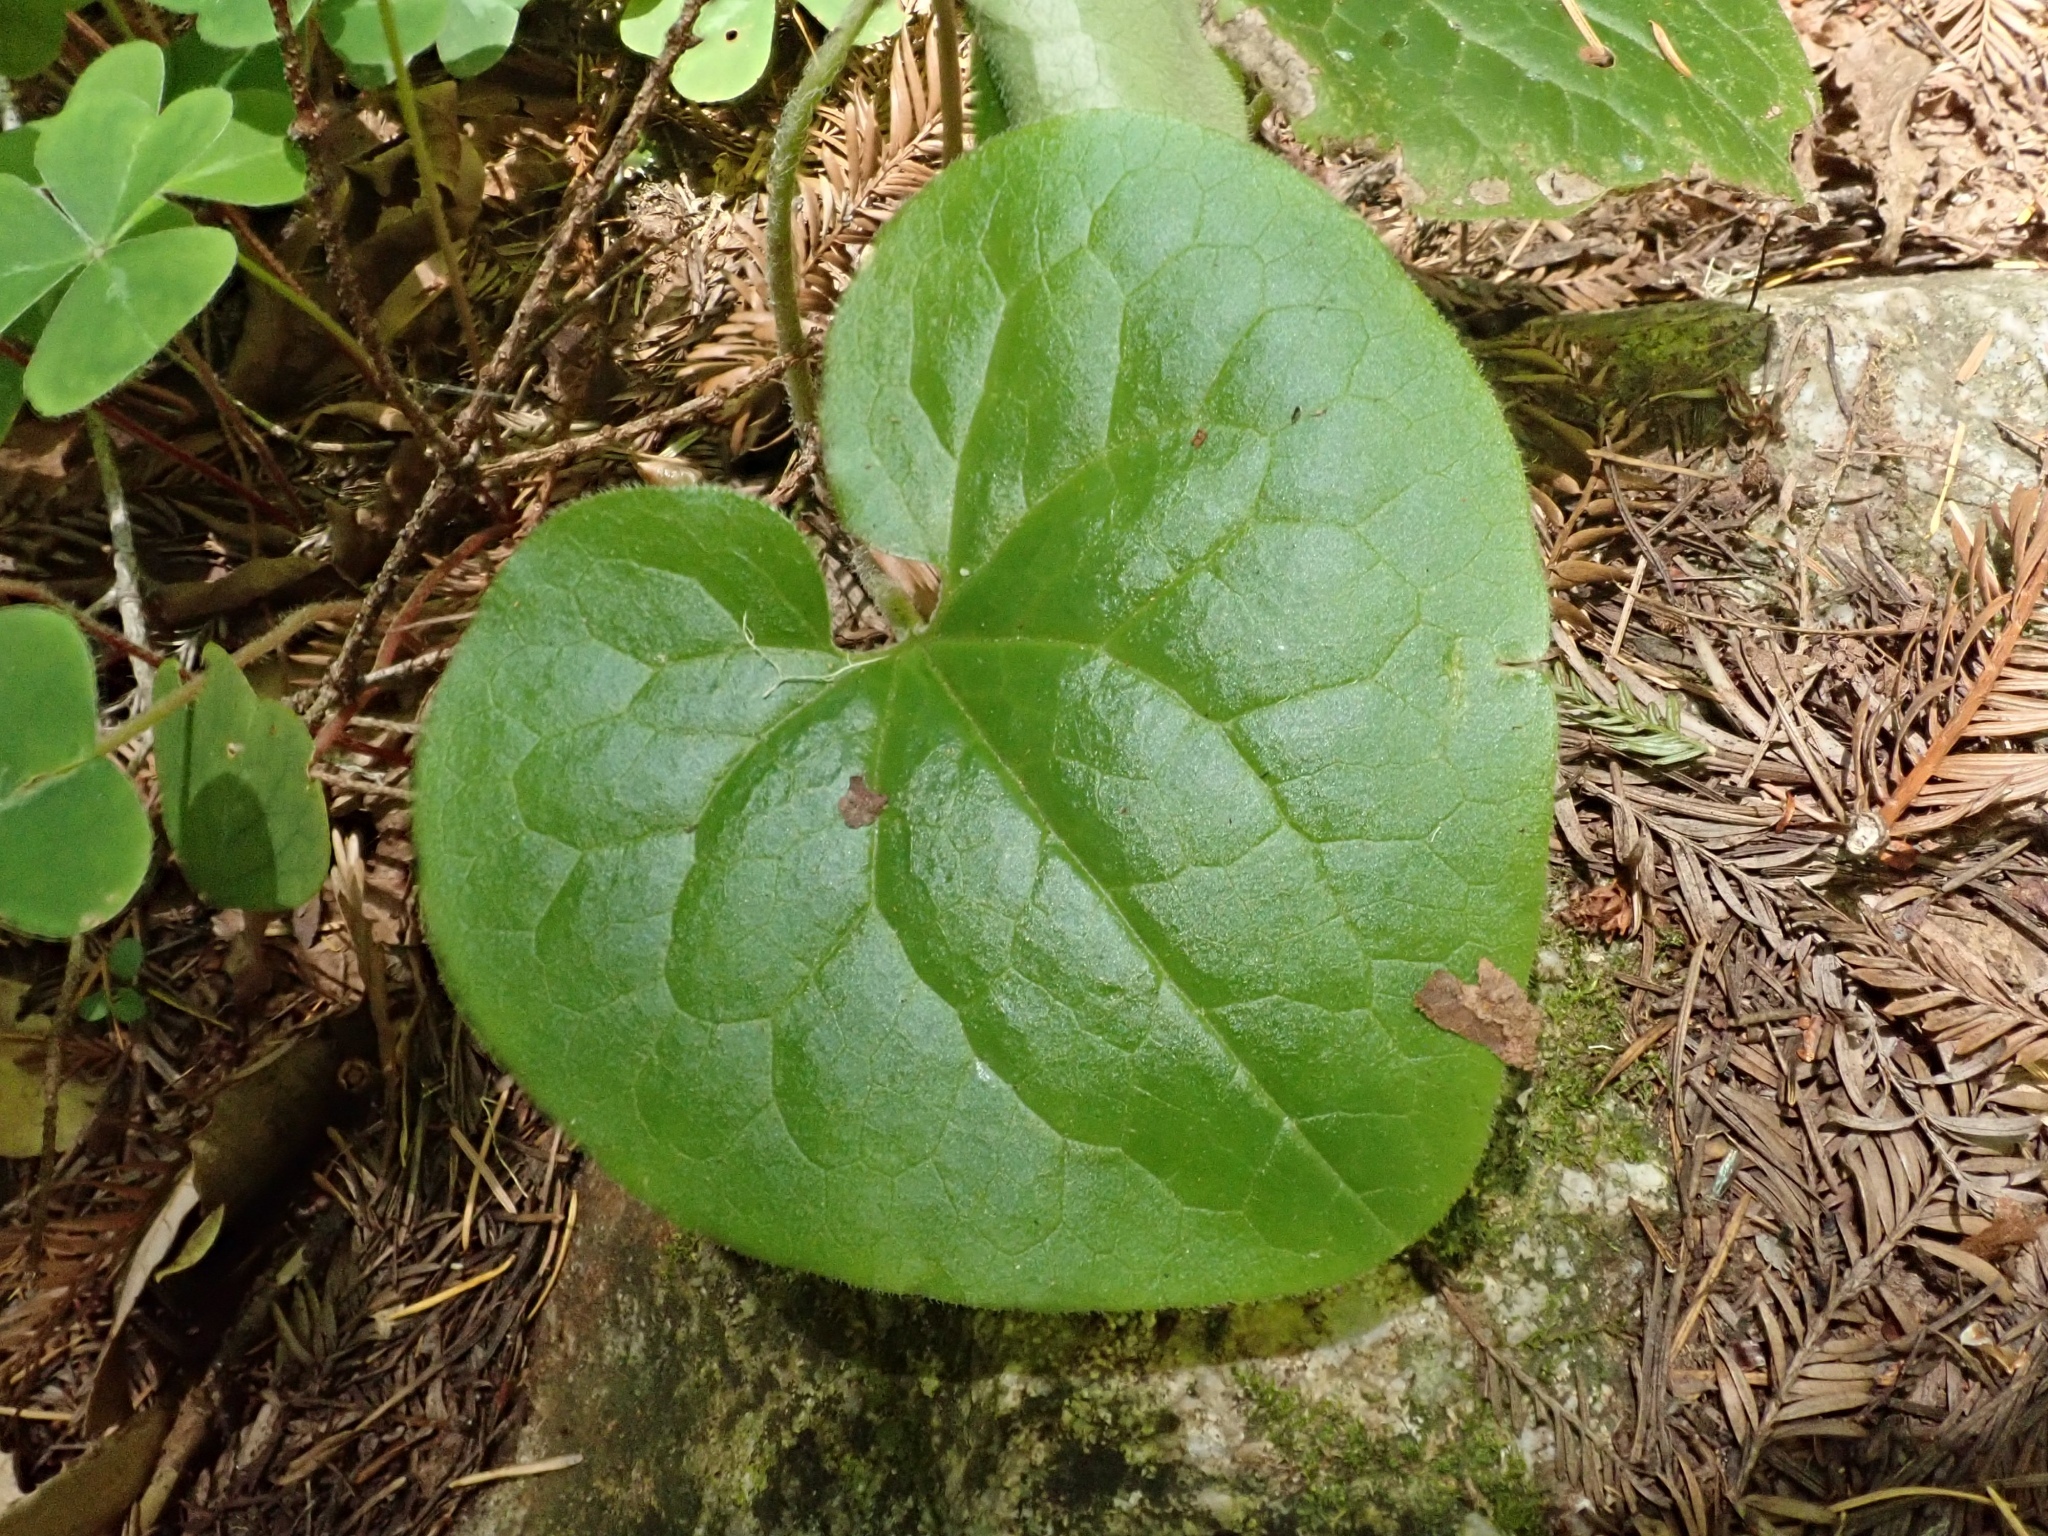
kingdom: Plantae
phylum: Tracheophyta
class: Magnoliopsida
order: Piperales
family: Aristolochiaceae
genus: Asarum
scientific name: Asarum caudatum
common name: Wild ginger
